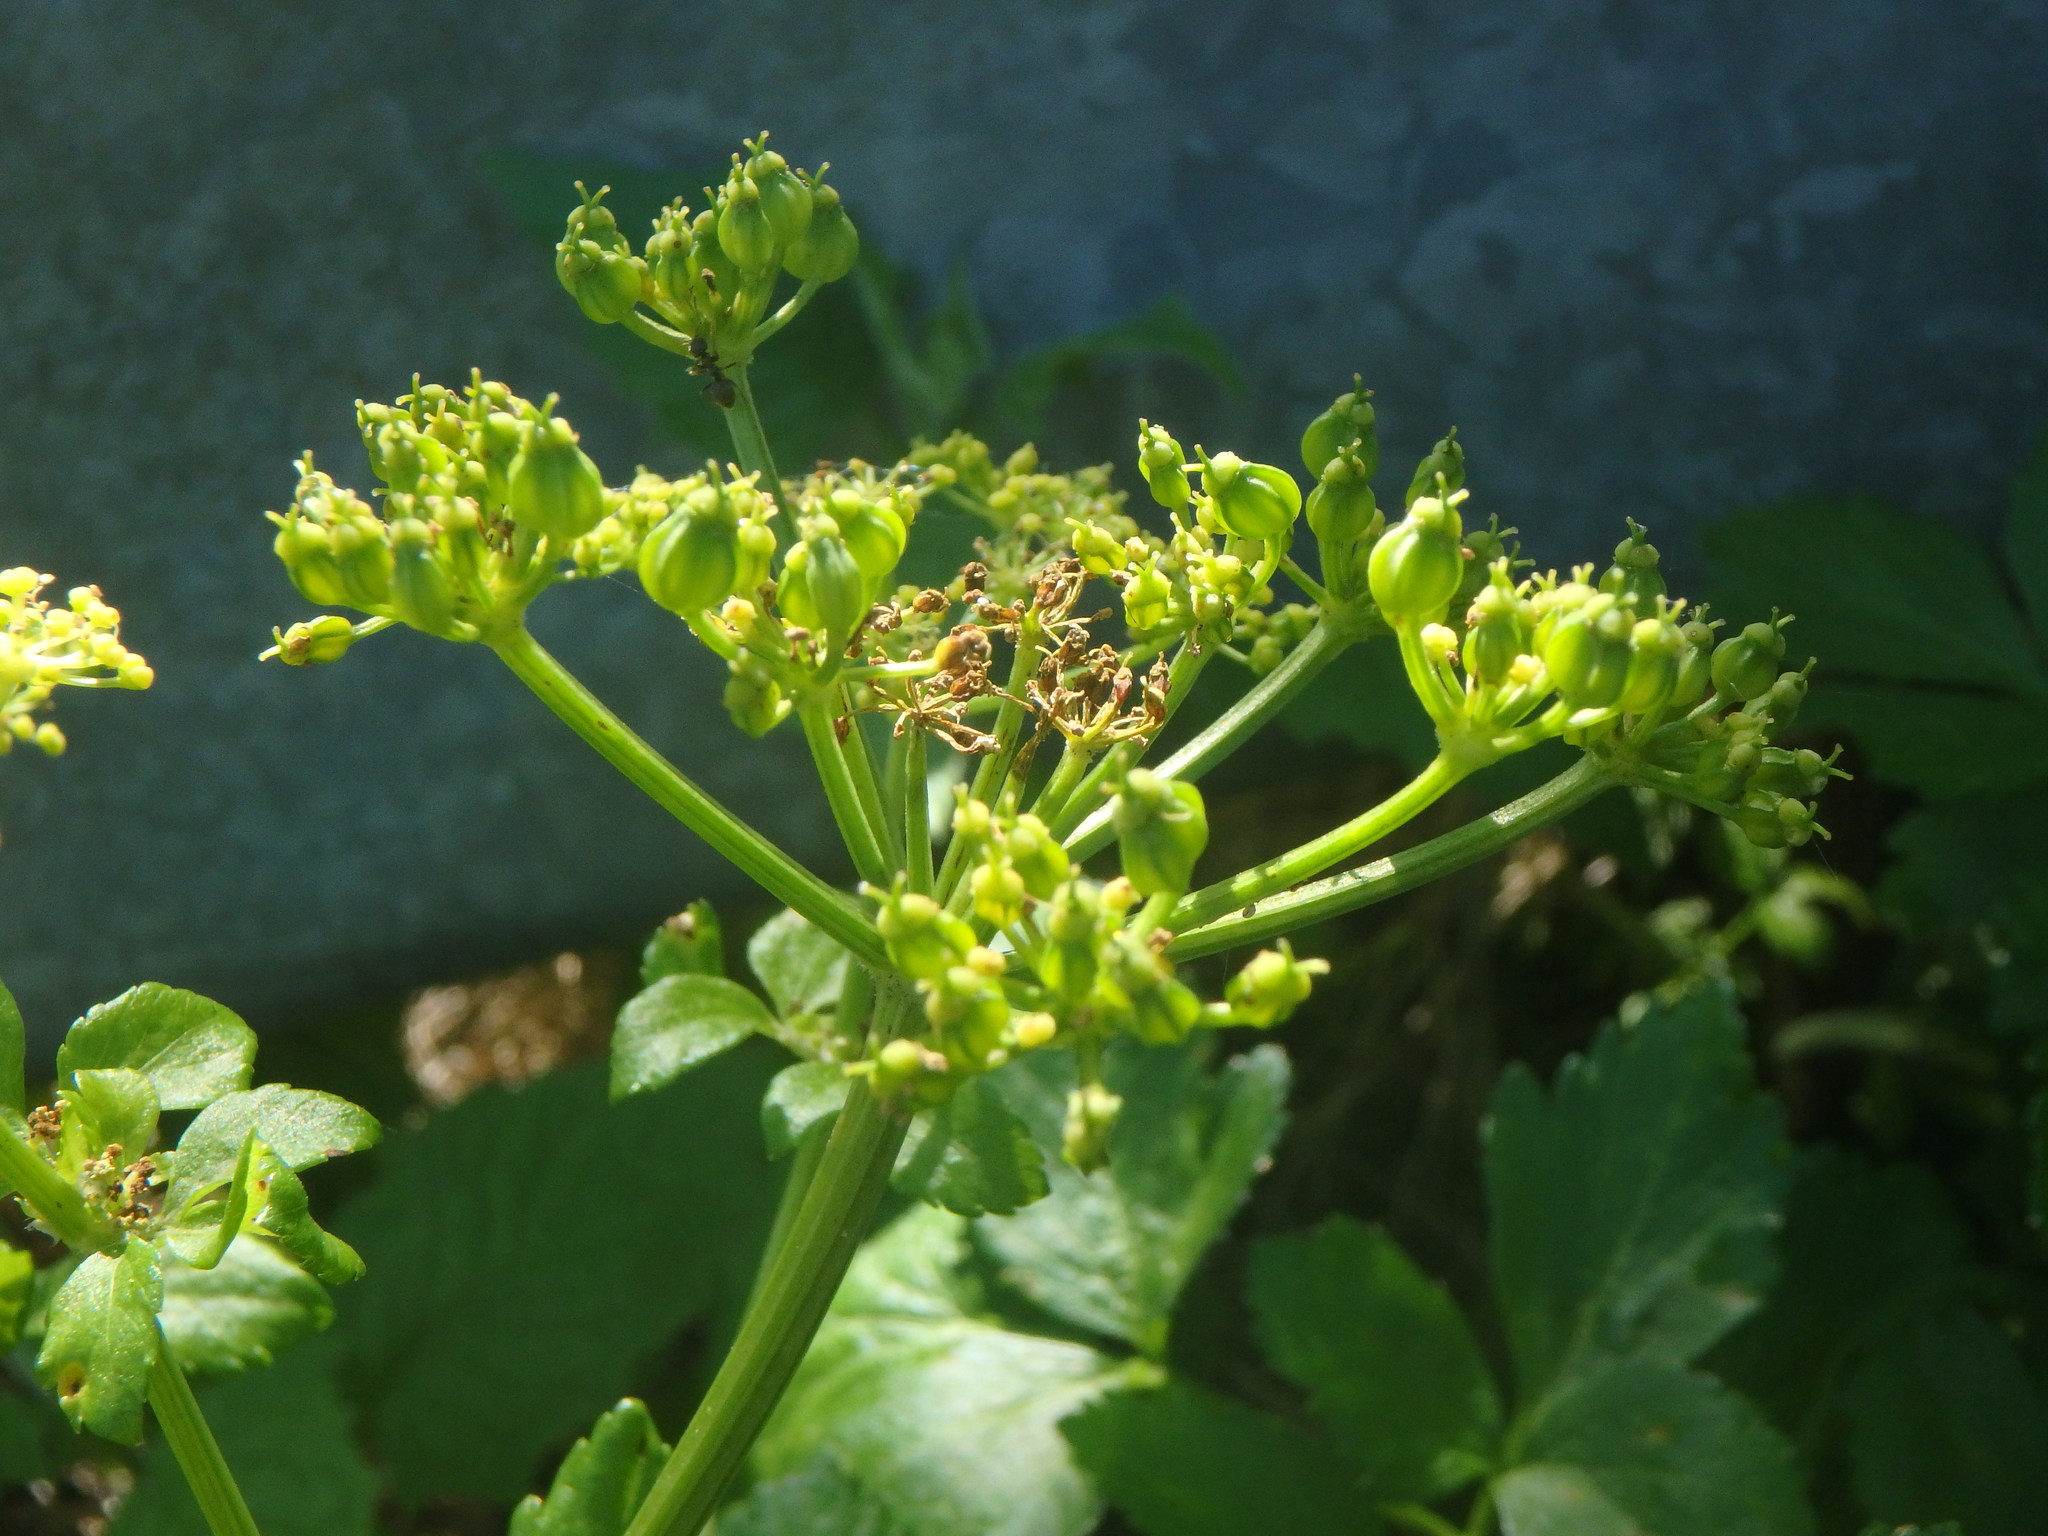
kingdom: Plantae
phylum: Tracheophyta
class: Magnoliopsida
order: Apiales
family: Apiaceae
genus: Smyrnium
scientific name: Smyrnium olusatrum
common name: Alexanders
